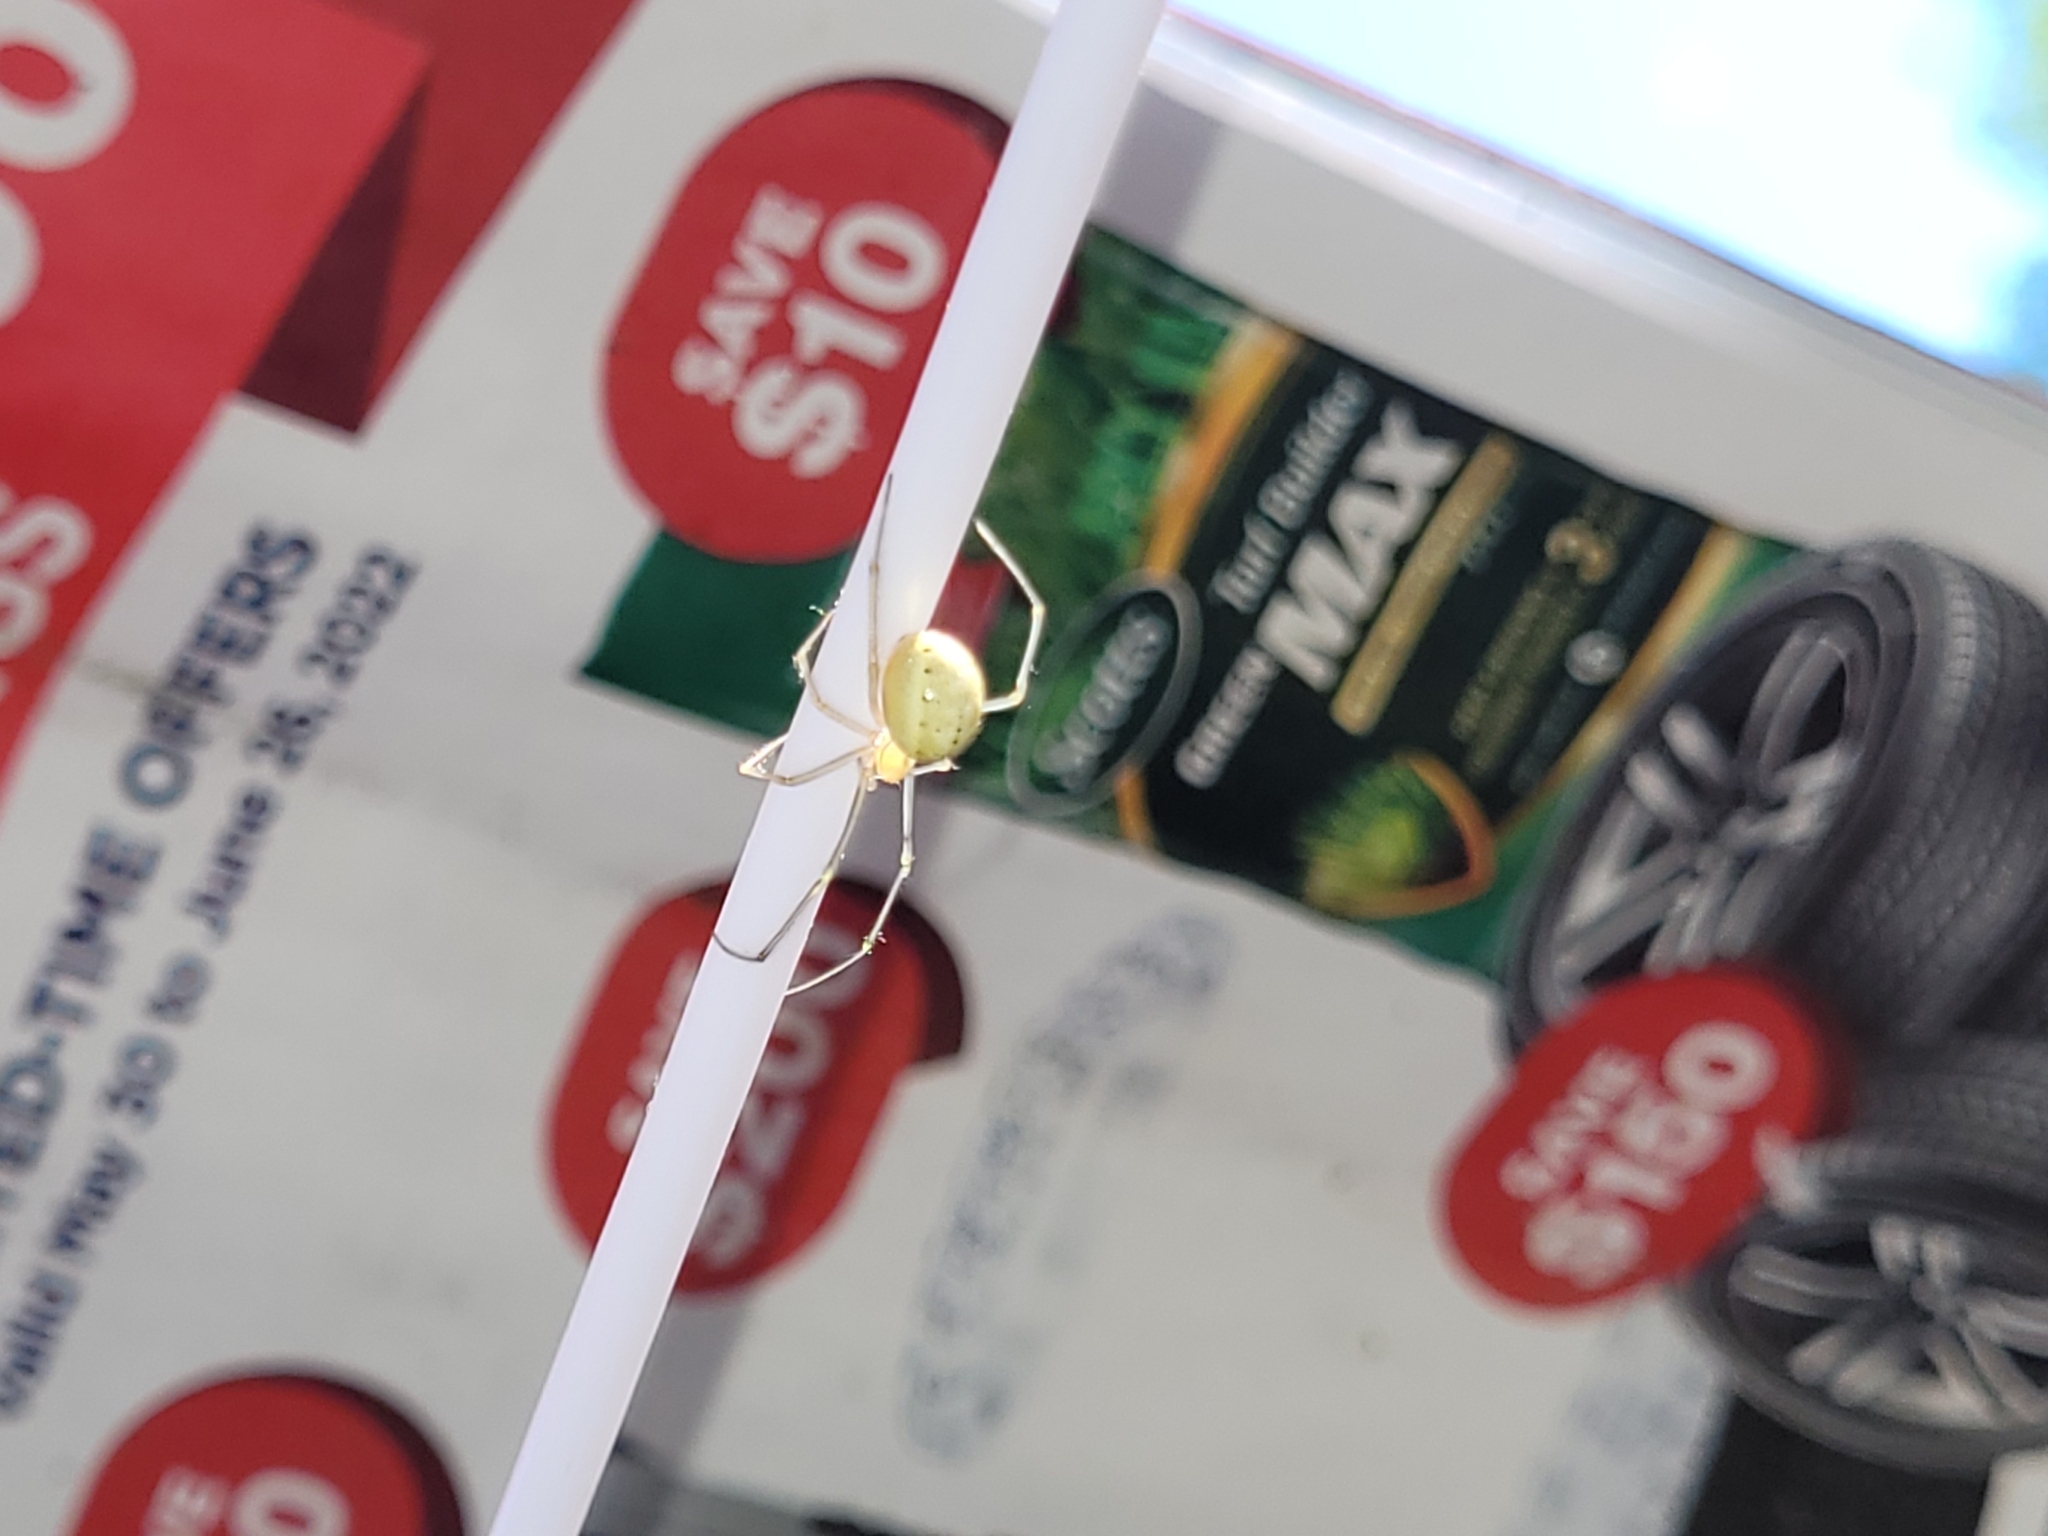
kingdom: Animalia
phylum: Arthropoda
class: Arachnida
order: Araneae
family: Theridiidae
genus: Enoplognatha
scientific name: Enoplognatha ovata
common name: Common candy-striped spider
